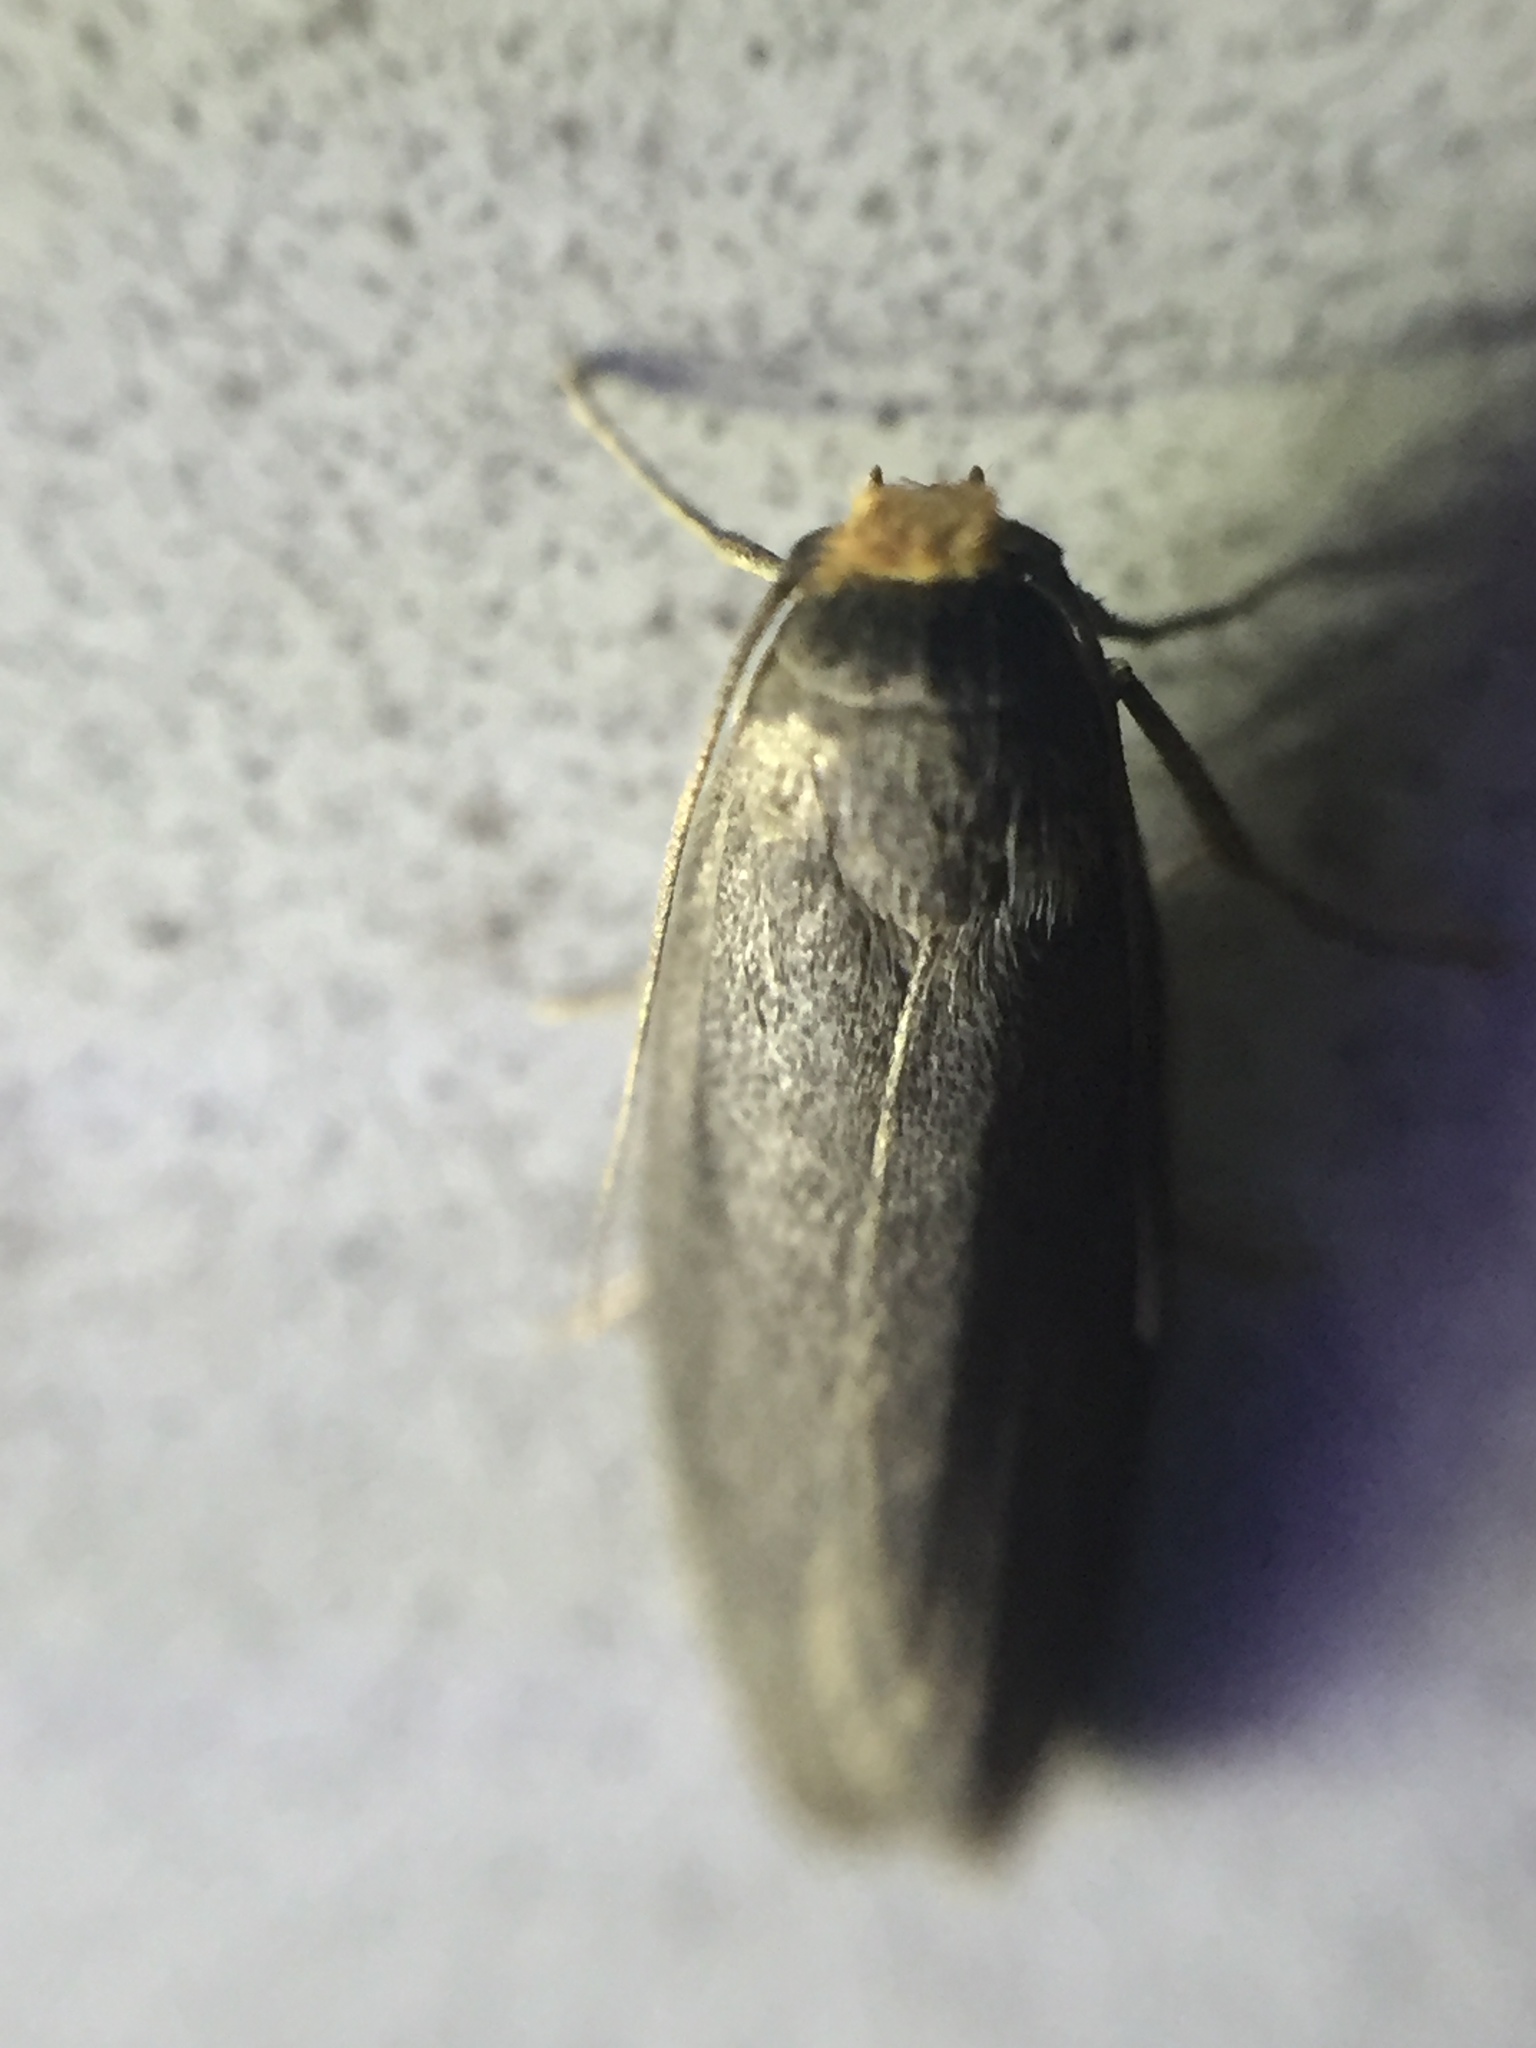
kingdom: Animalia
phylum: Arthropoda
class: Insecta
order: Lepidoptera
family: Pyralidae
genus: Achroia
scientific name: Achroia grisella
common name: Lesser wax moth
